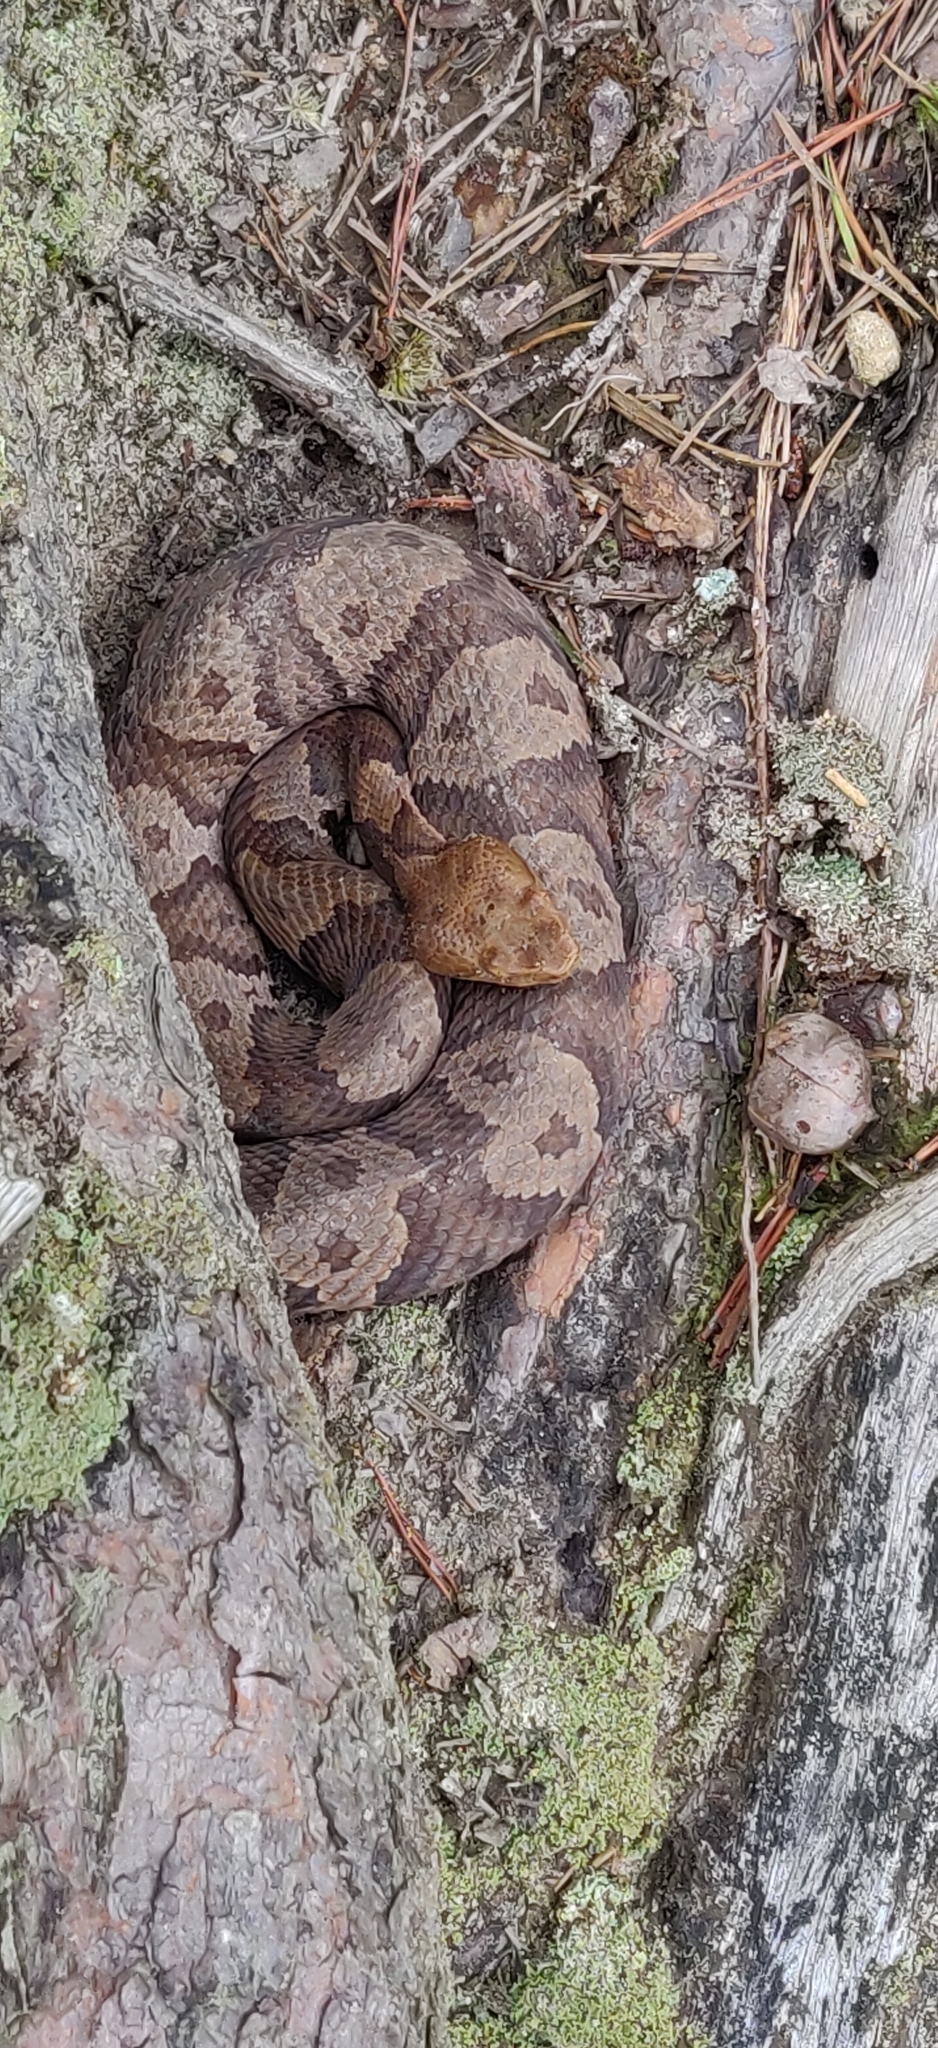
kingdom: Animalia
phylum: Chordata
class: Squamata
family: Viperidae
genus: Agkistrodon
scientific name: Agkistrodon contortrix
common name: Northern copperhead
